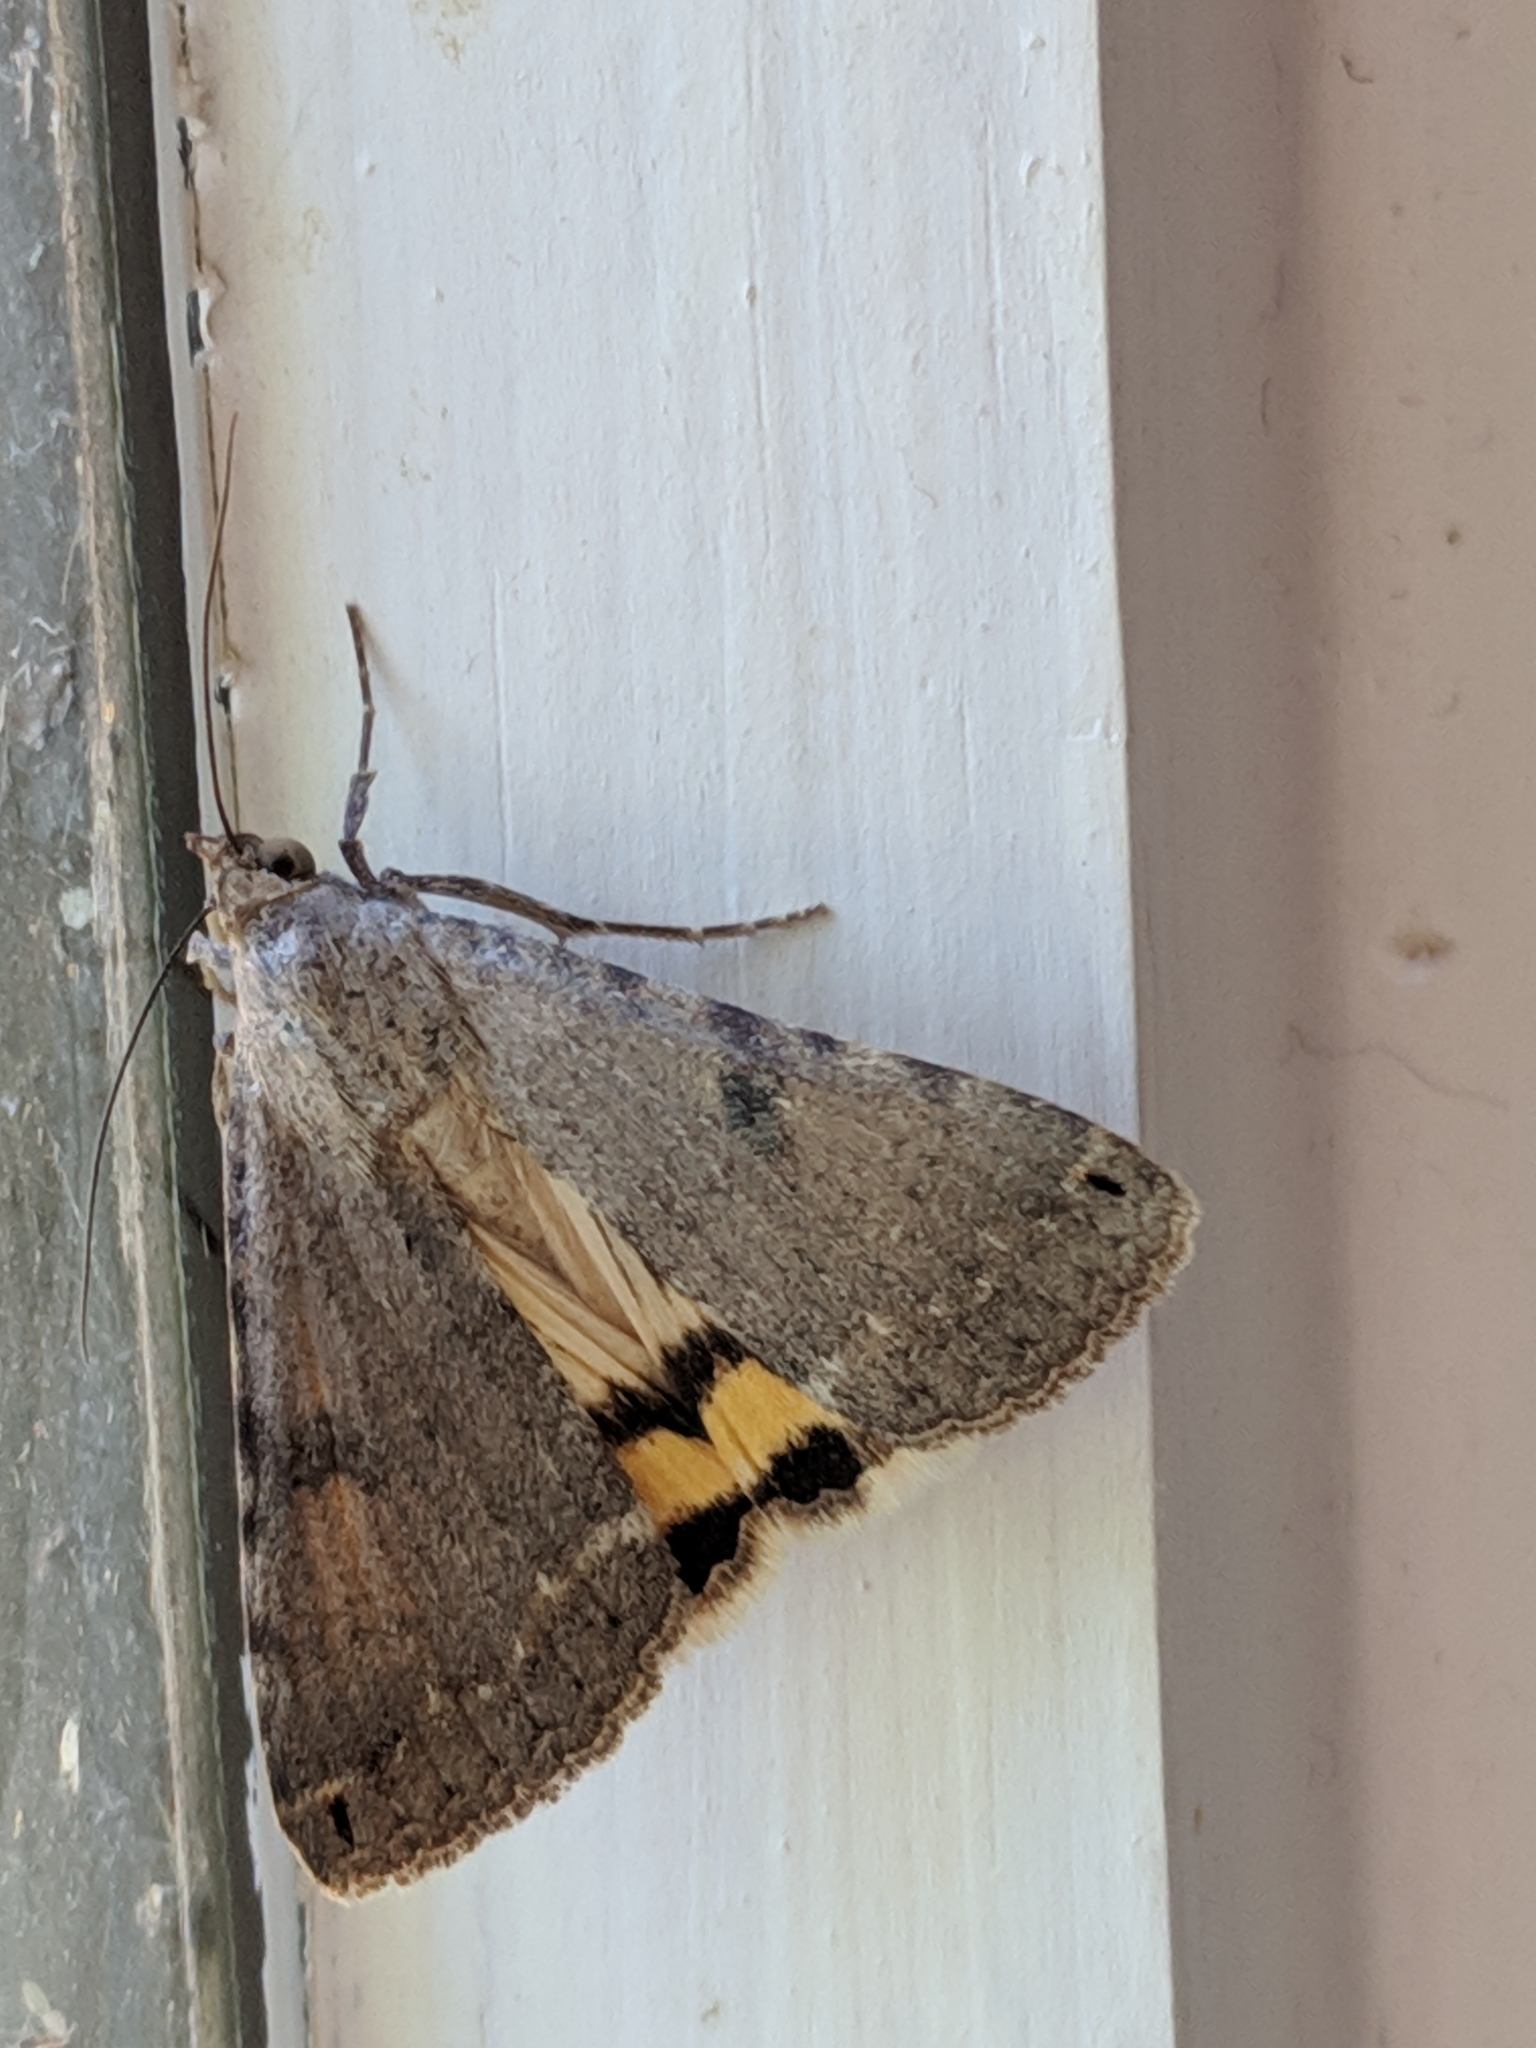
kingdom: Animalia
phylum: Arthropoda
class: Insecta
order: Lepidoptera
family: Erebidae
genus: Bulia
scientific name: Bulia
